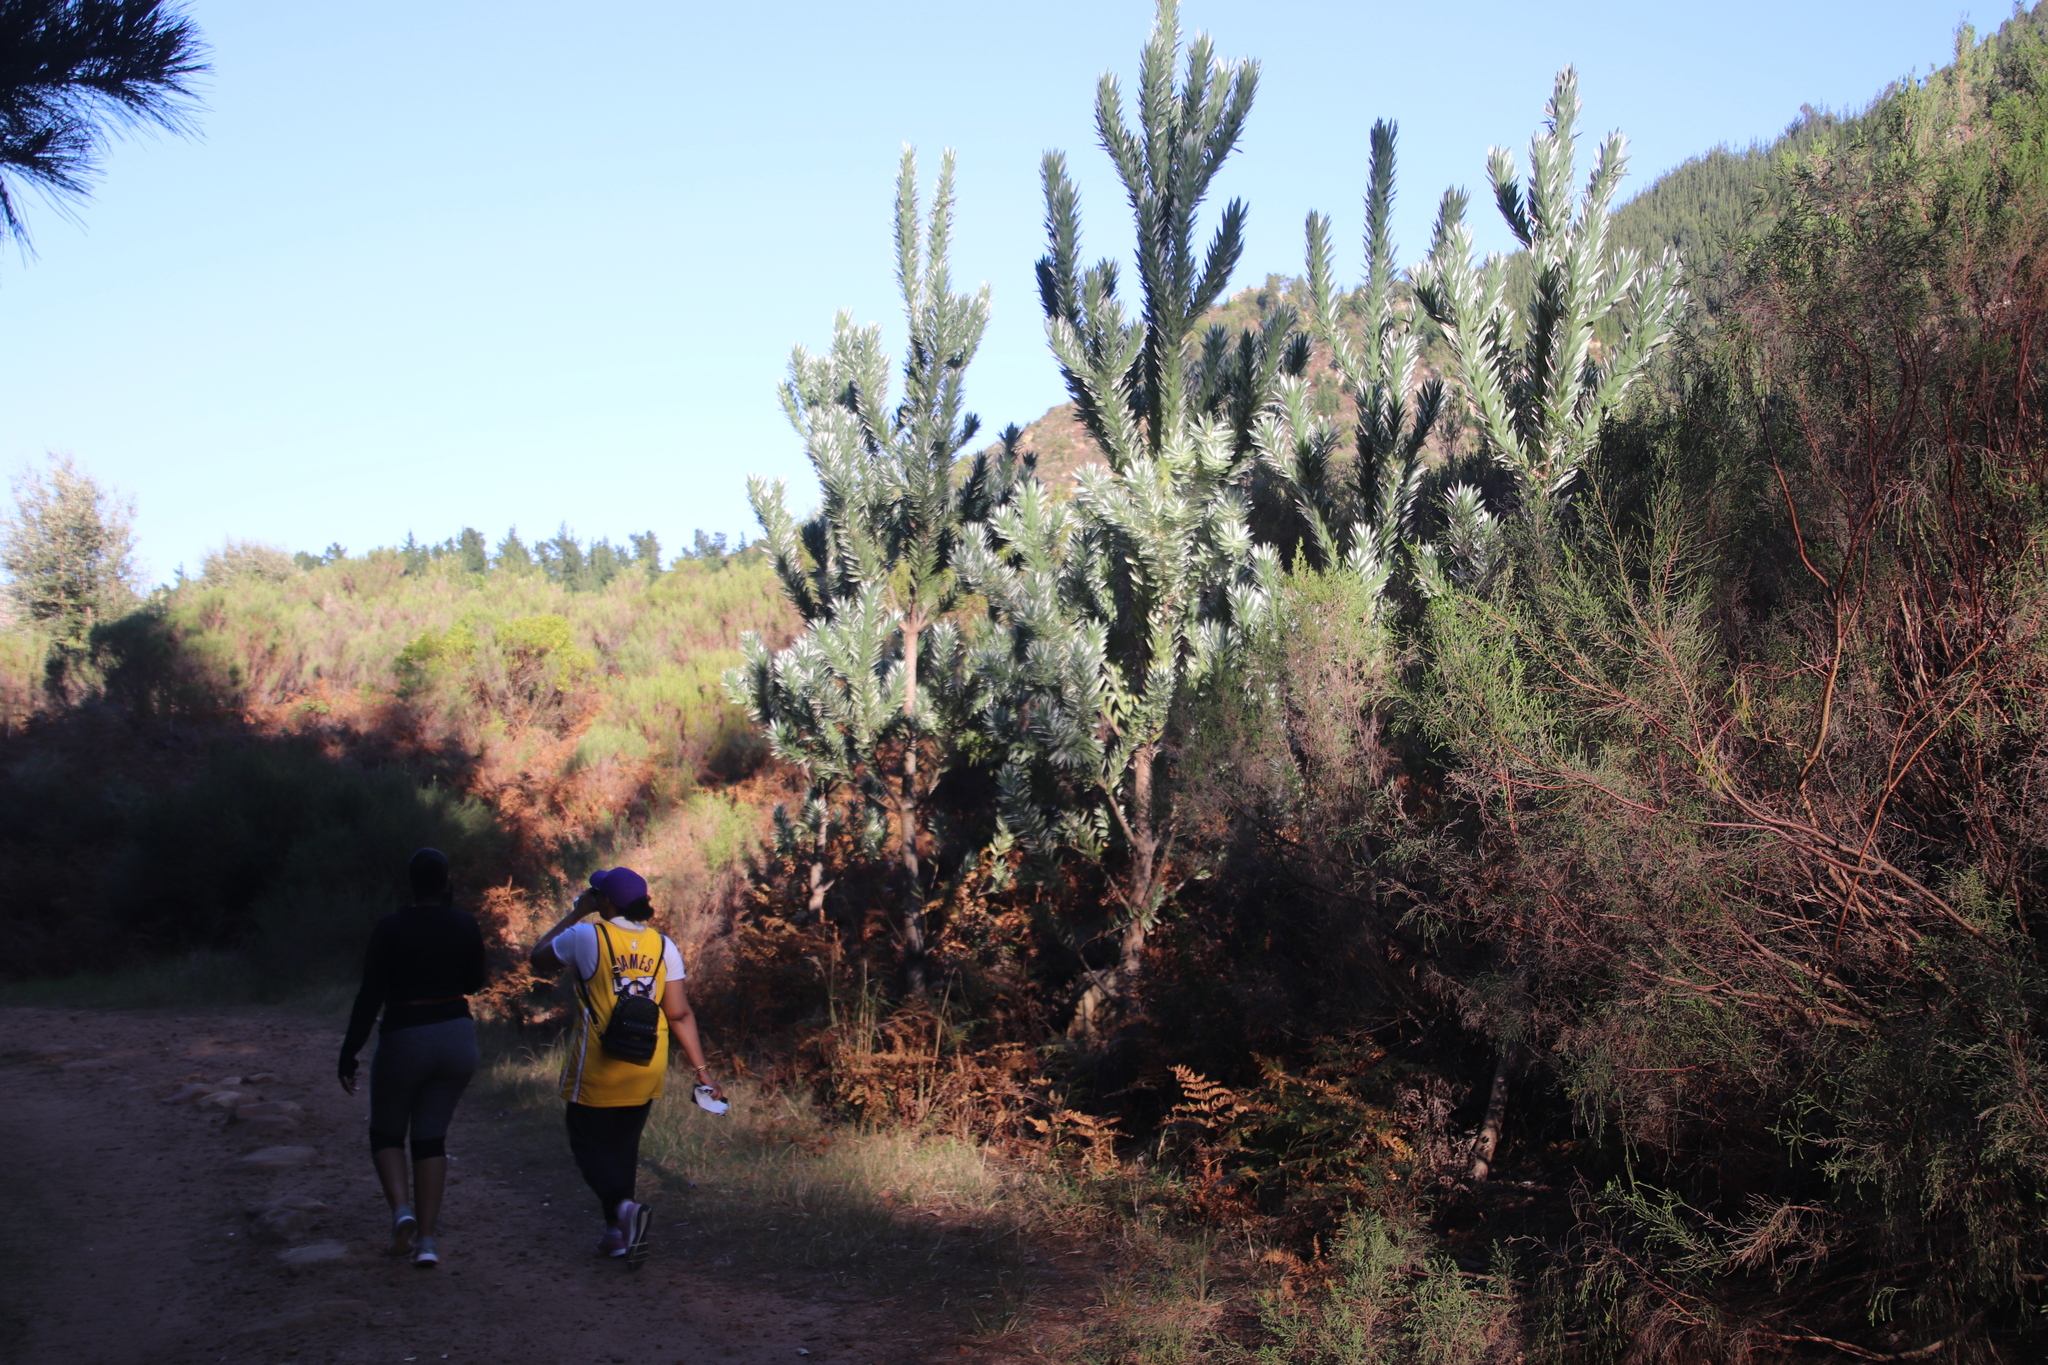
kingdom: Plantae
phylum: Tracheophyta
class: Magnoliopsida
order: Proteales
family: Proteaceae
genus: Leucadendron
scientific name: Leucadendron argenteum
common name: Cape silver tree
